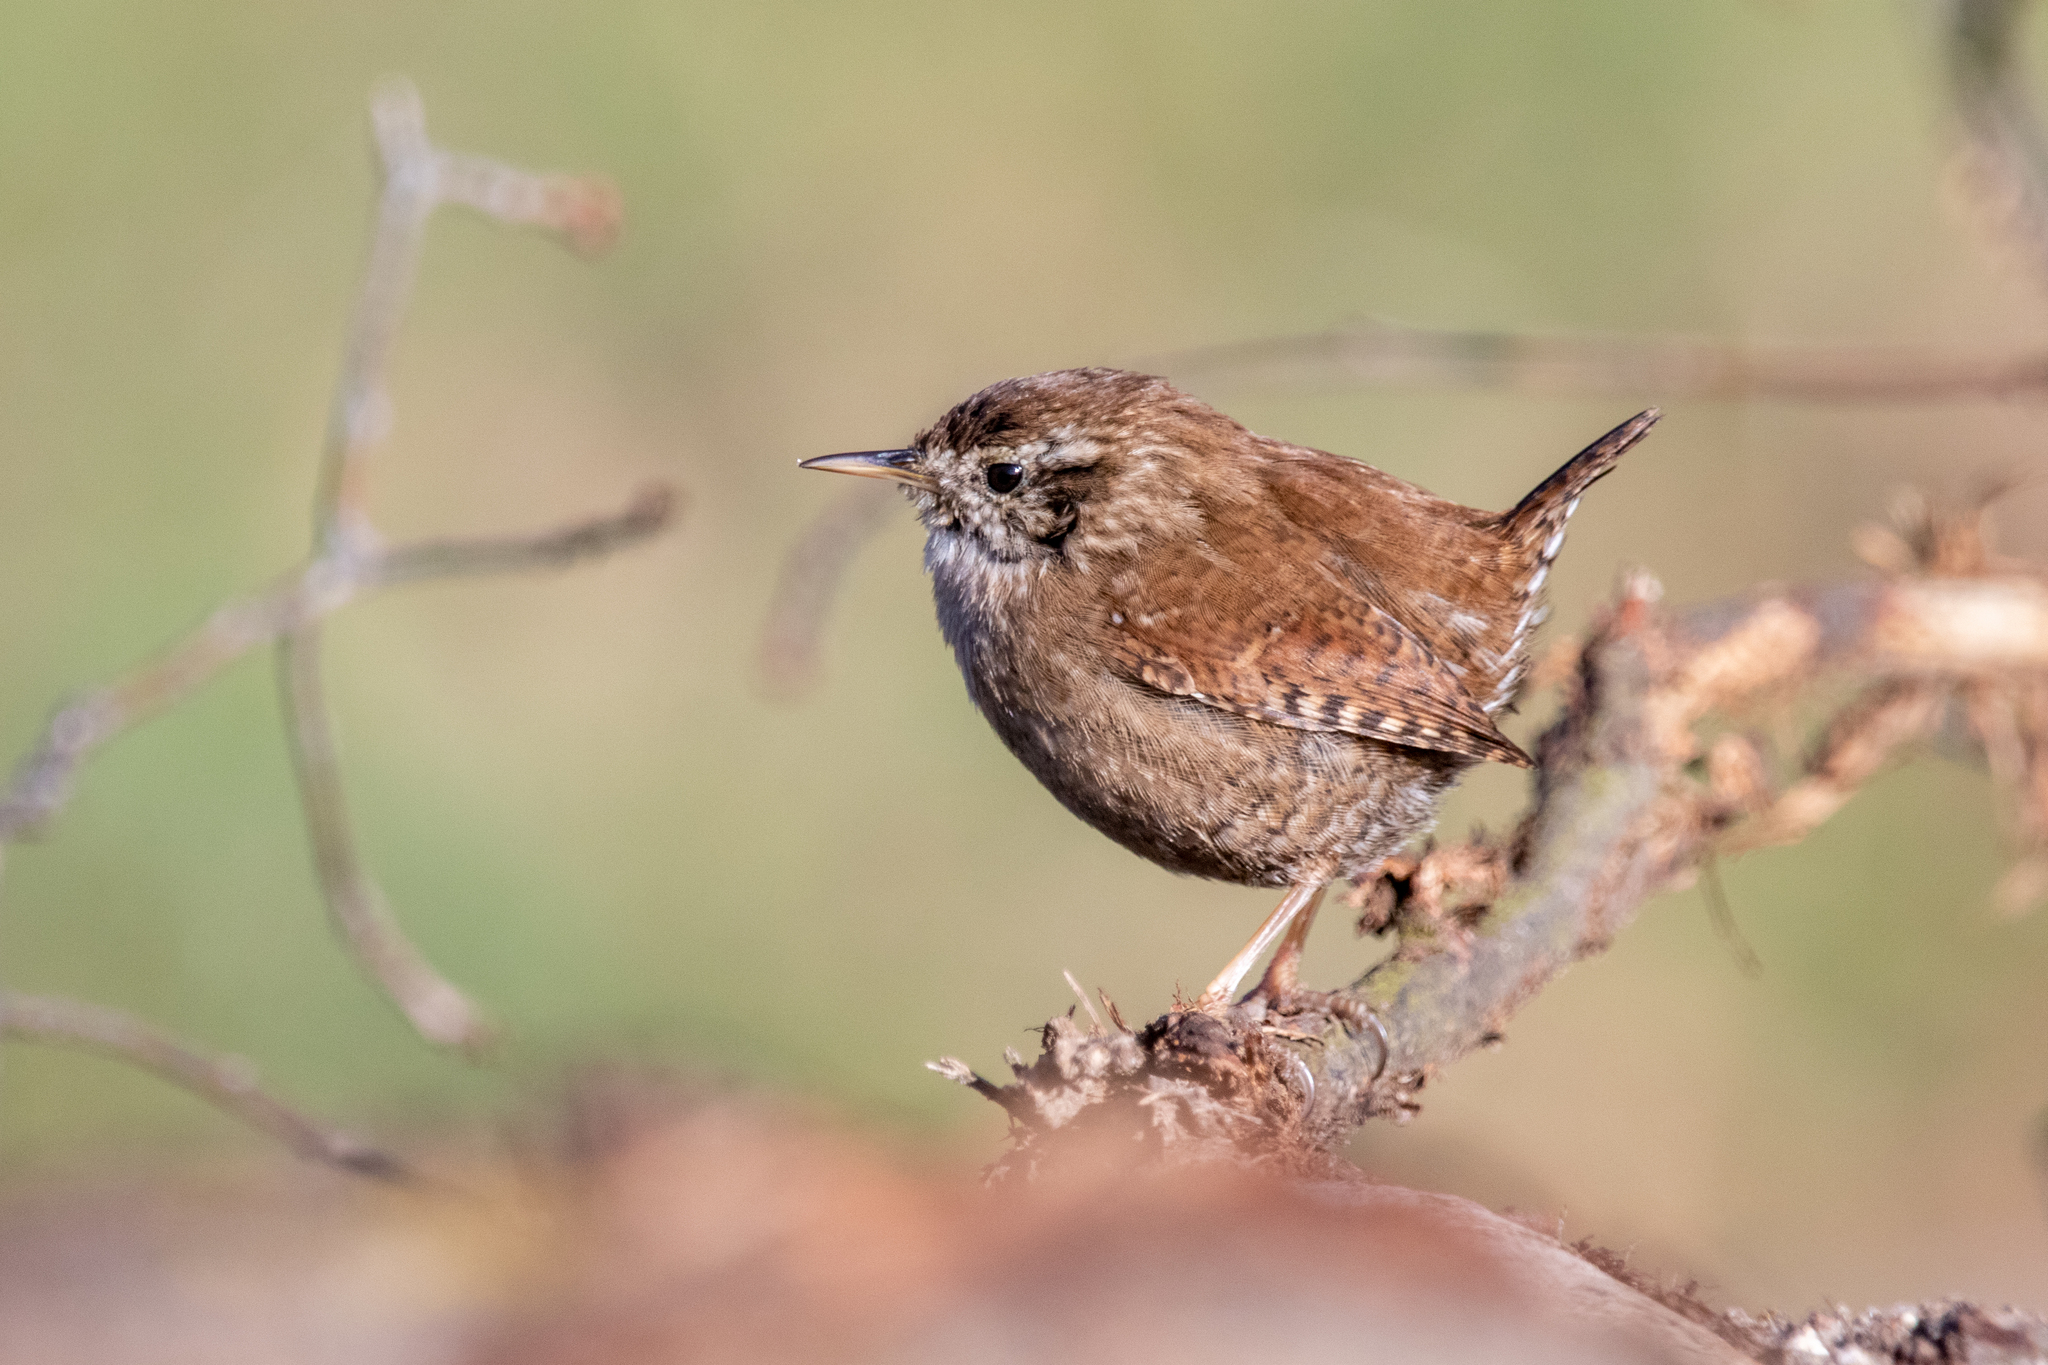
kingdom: Animalia
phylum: Chordata
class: Aves
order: Passeriformes
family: Troglodytidae
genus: Troglodytes
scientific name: Troglodytes troglodytes
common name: Eurasian wren
